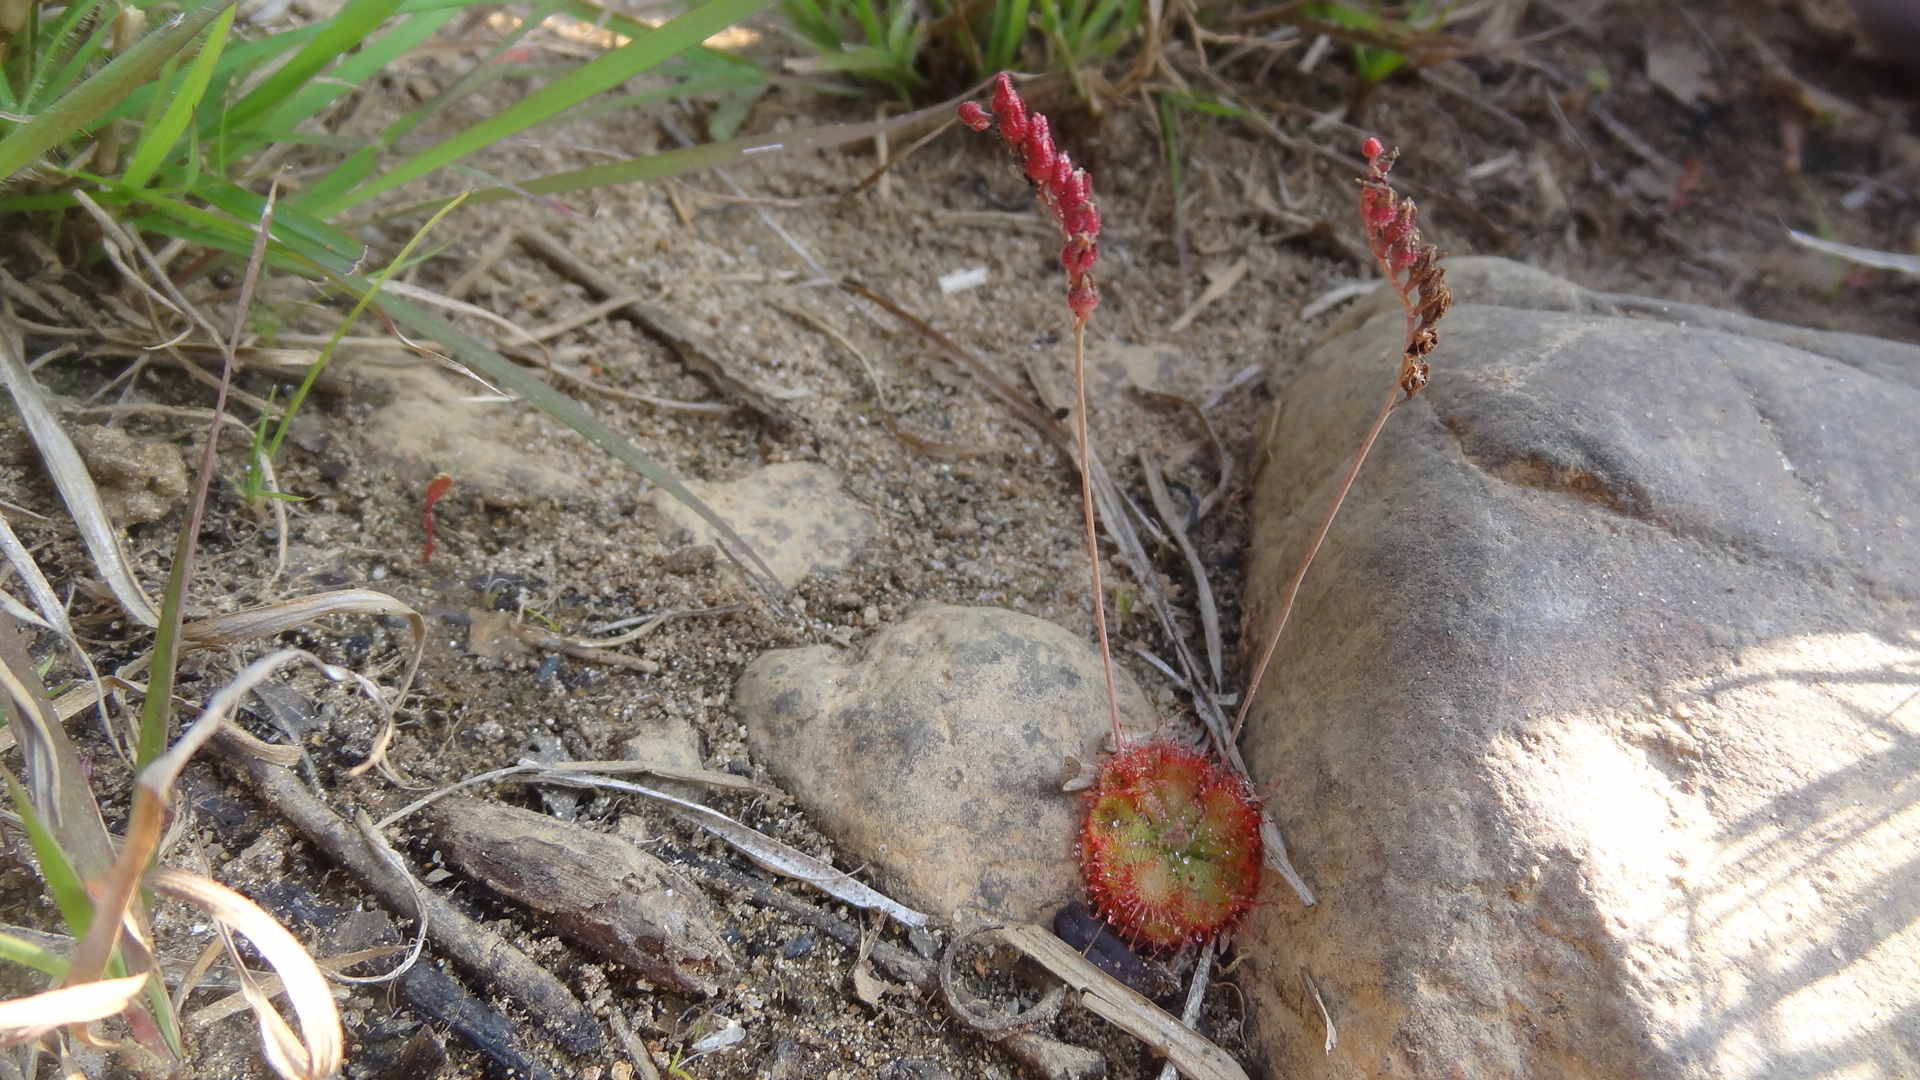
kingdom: Plantae
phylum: Tracheophyta
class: Magnoliopsida
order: Caryophyllales
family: Droseraceae
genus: Drosera
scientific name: Drosera spatulata
